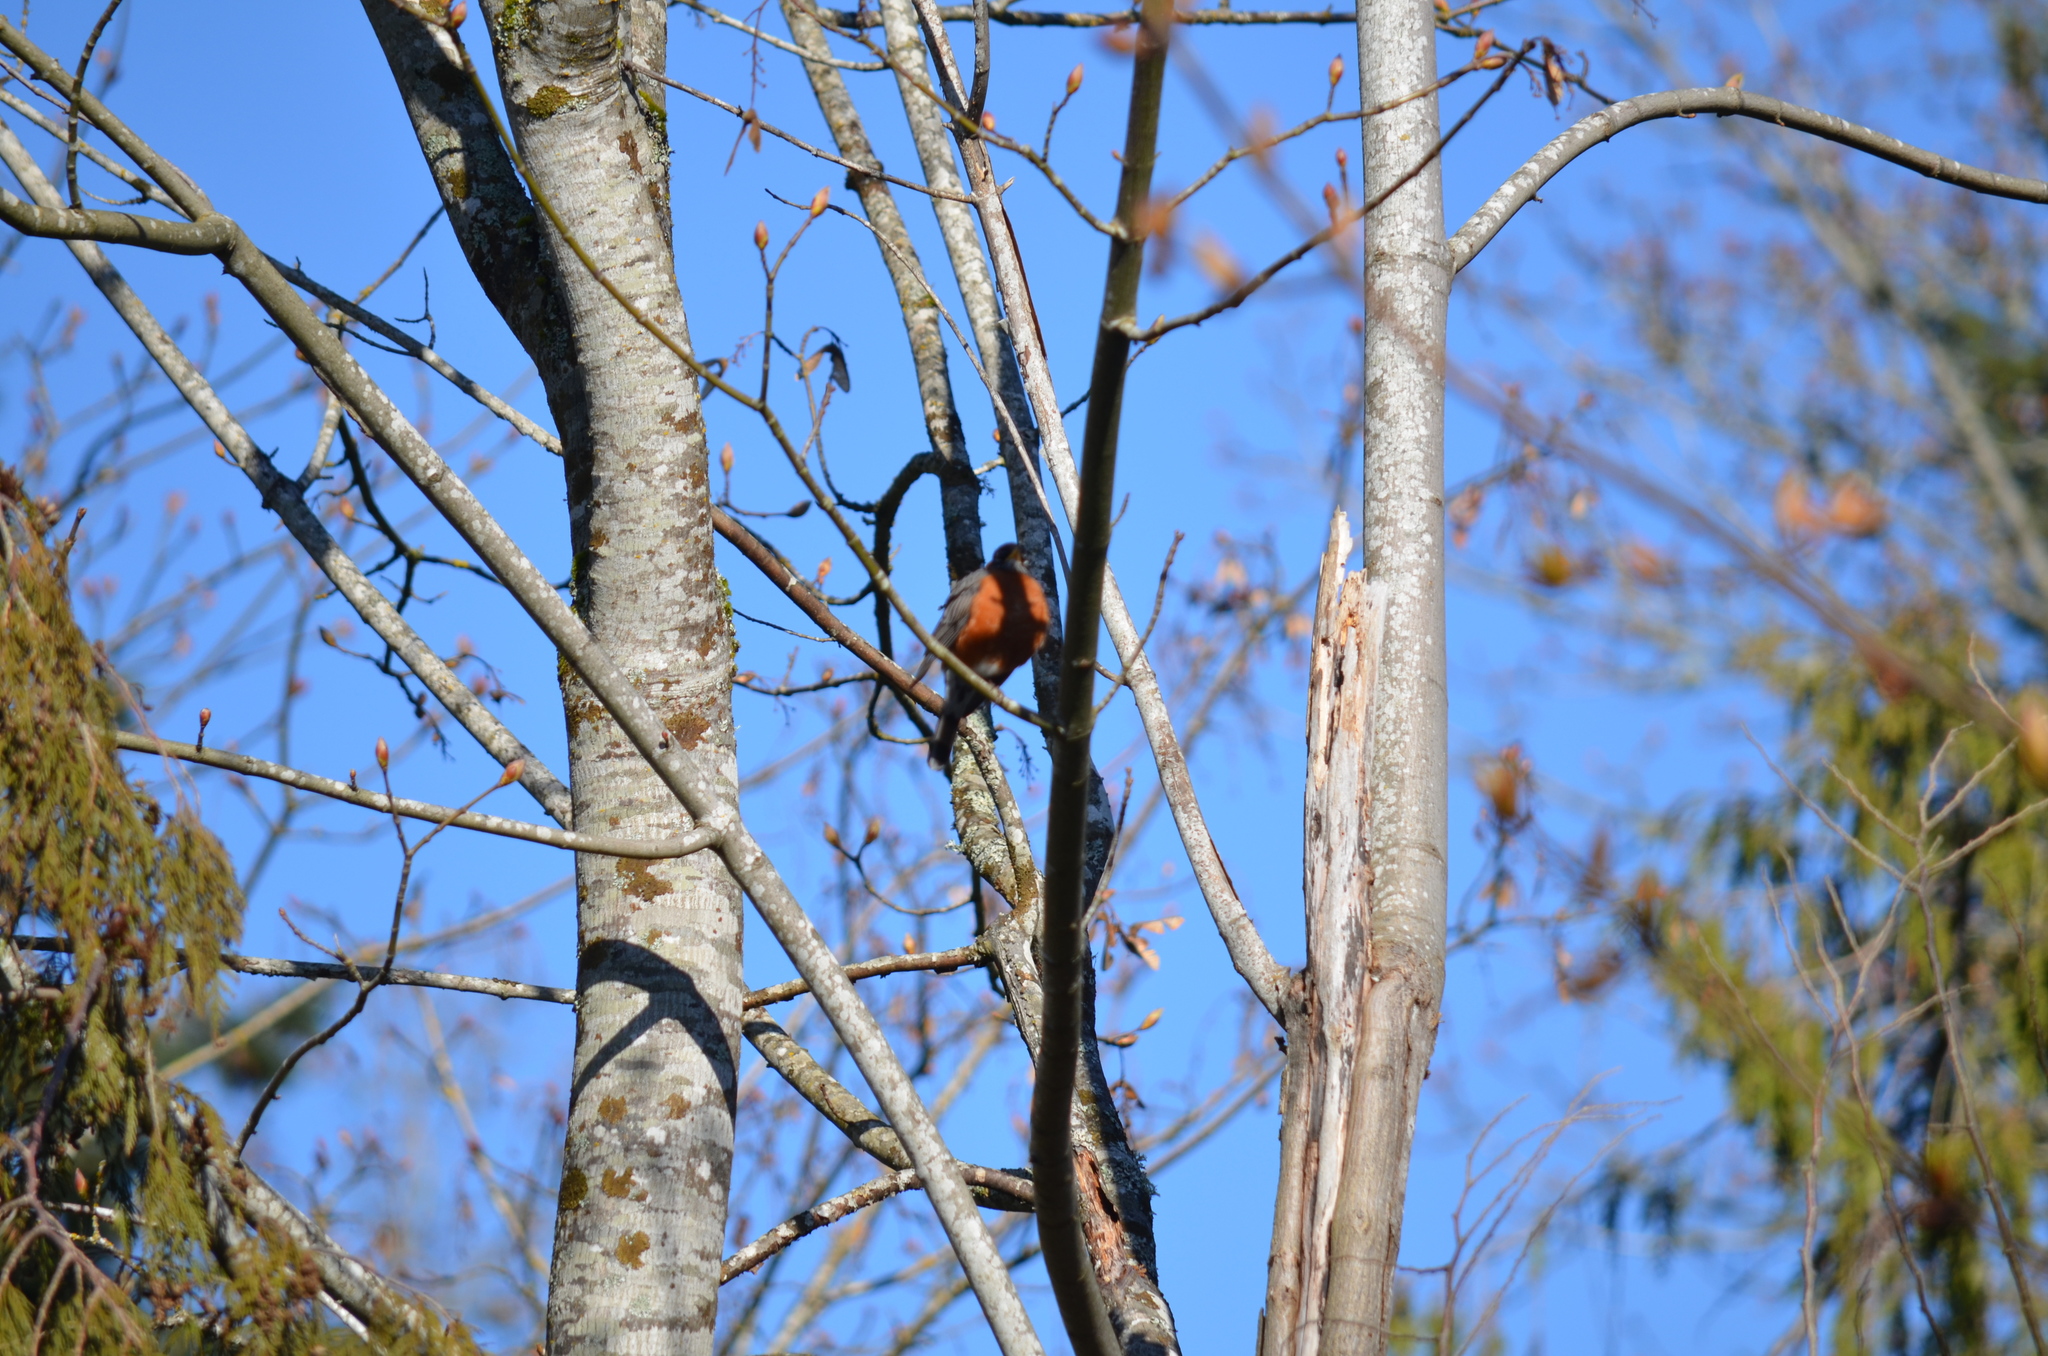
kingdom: Animalia
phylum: Chordata
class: Aves
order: Passeriformes
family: Turdidae
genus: Turdus
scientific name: Turdus migratorius
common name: American robin
